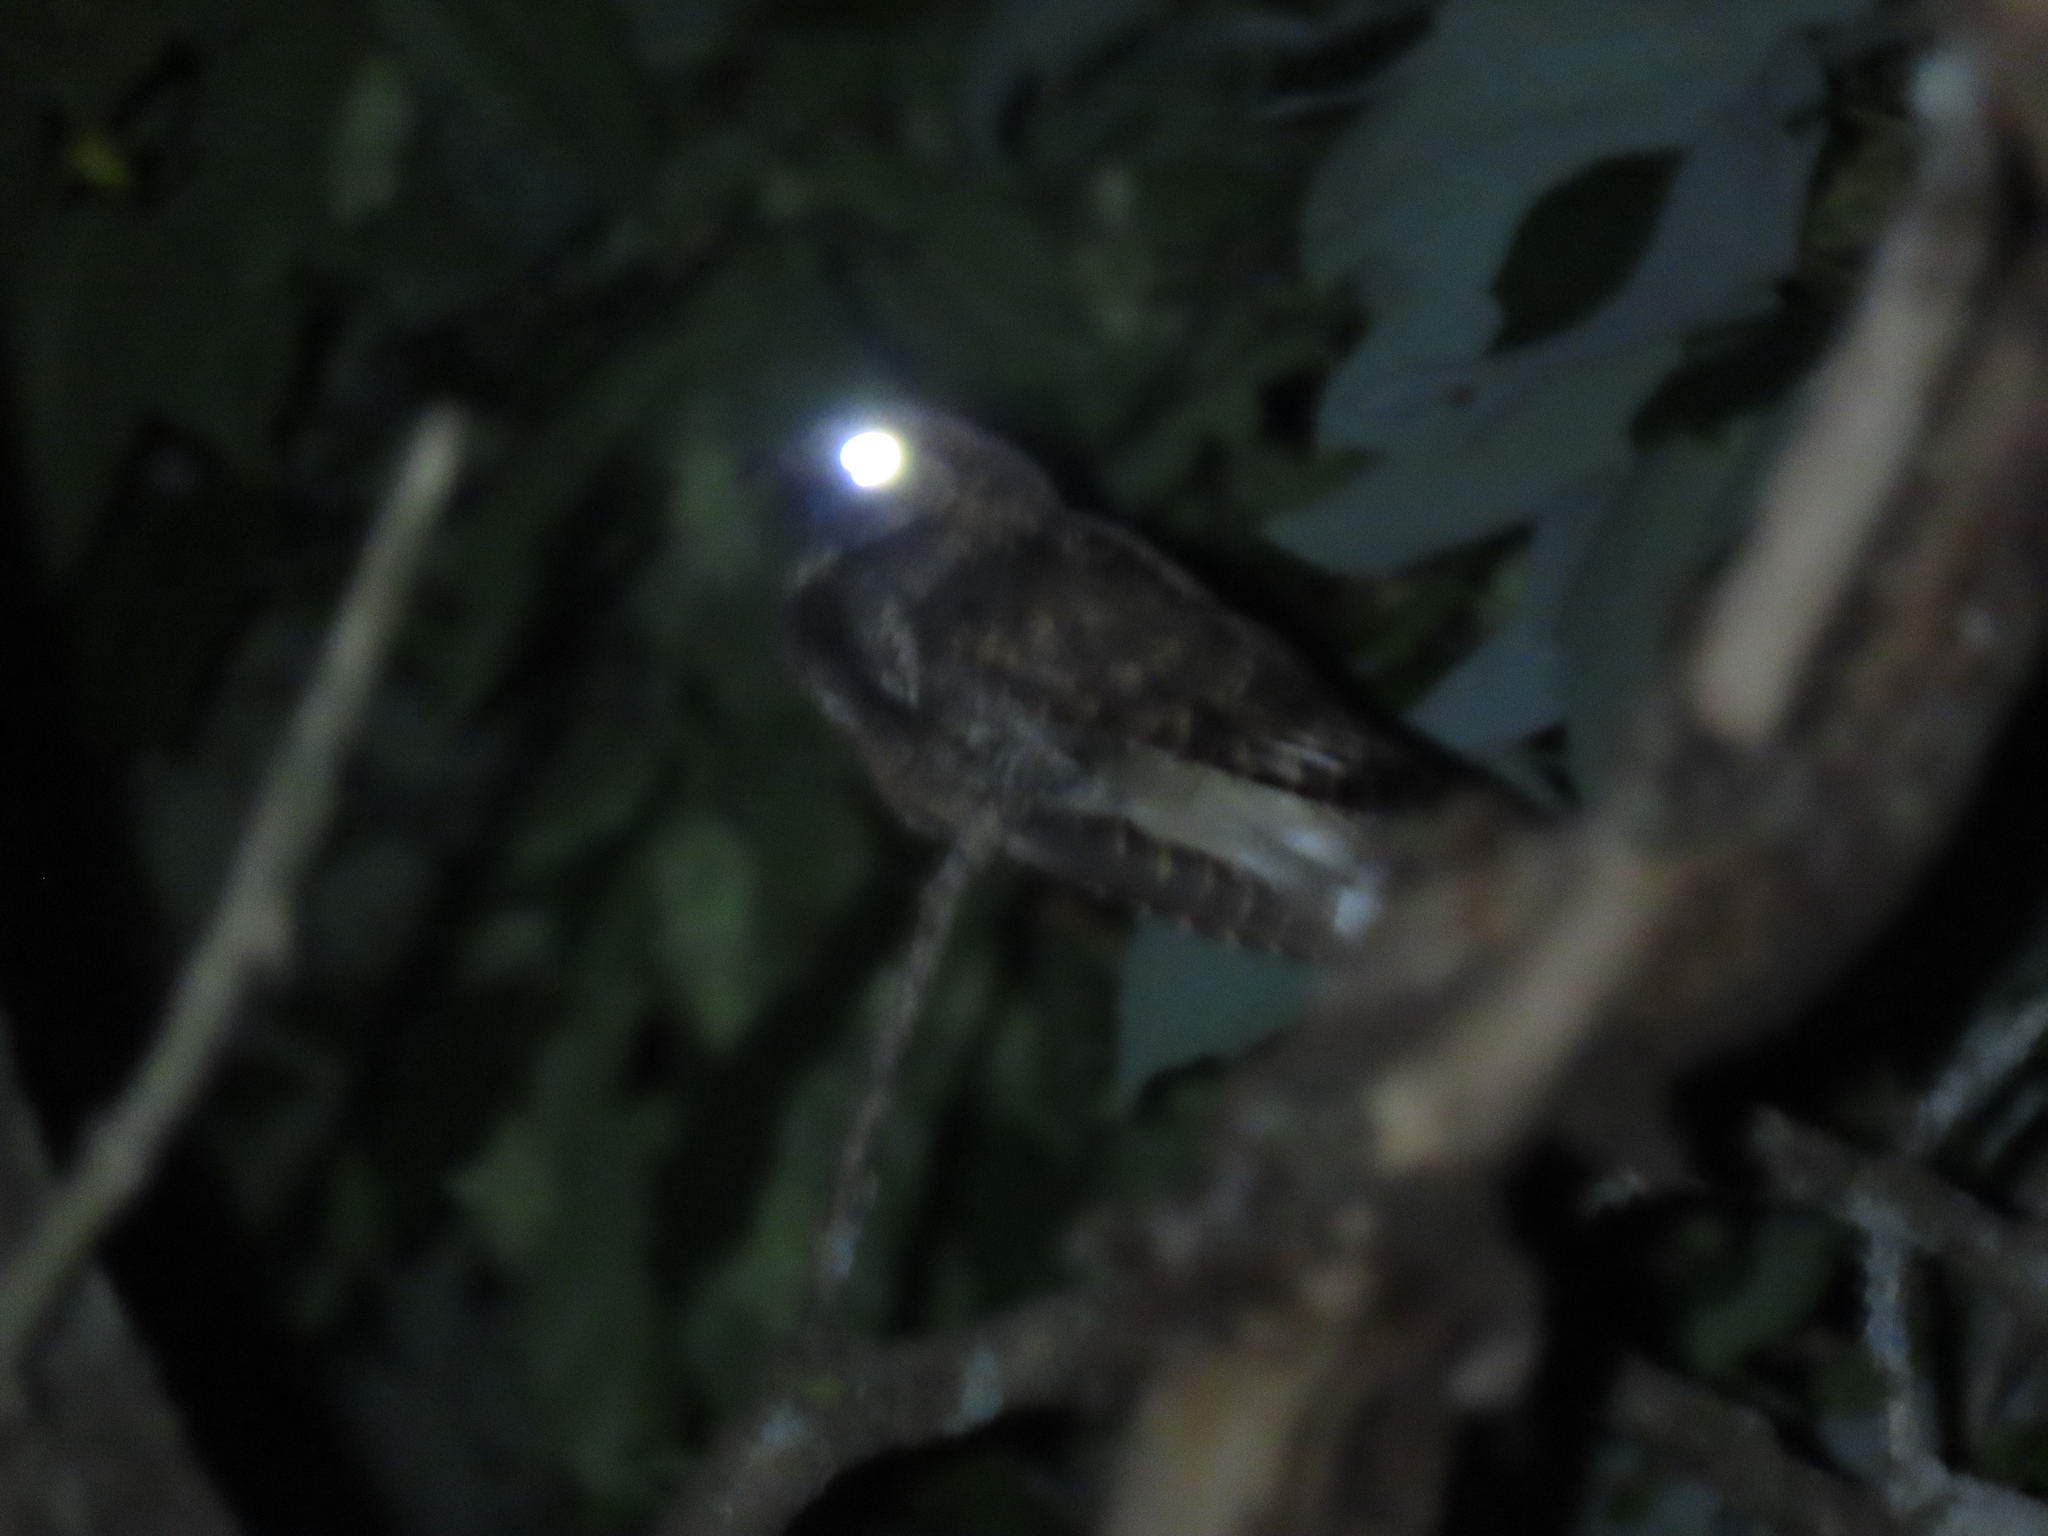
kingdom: Animalia
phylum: Chordata
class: Aves
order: Caprimulgiformes
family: Caprimulgidae
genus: Antrostomus
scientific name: Antrostomus vociferus
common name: Eastern whip-poor-will
